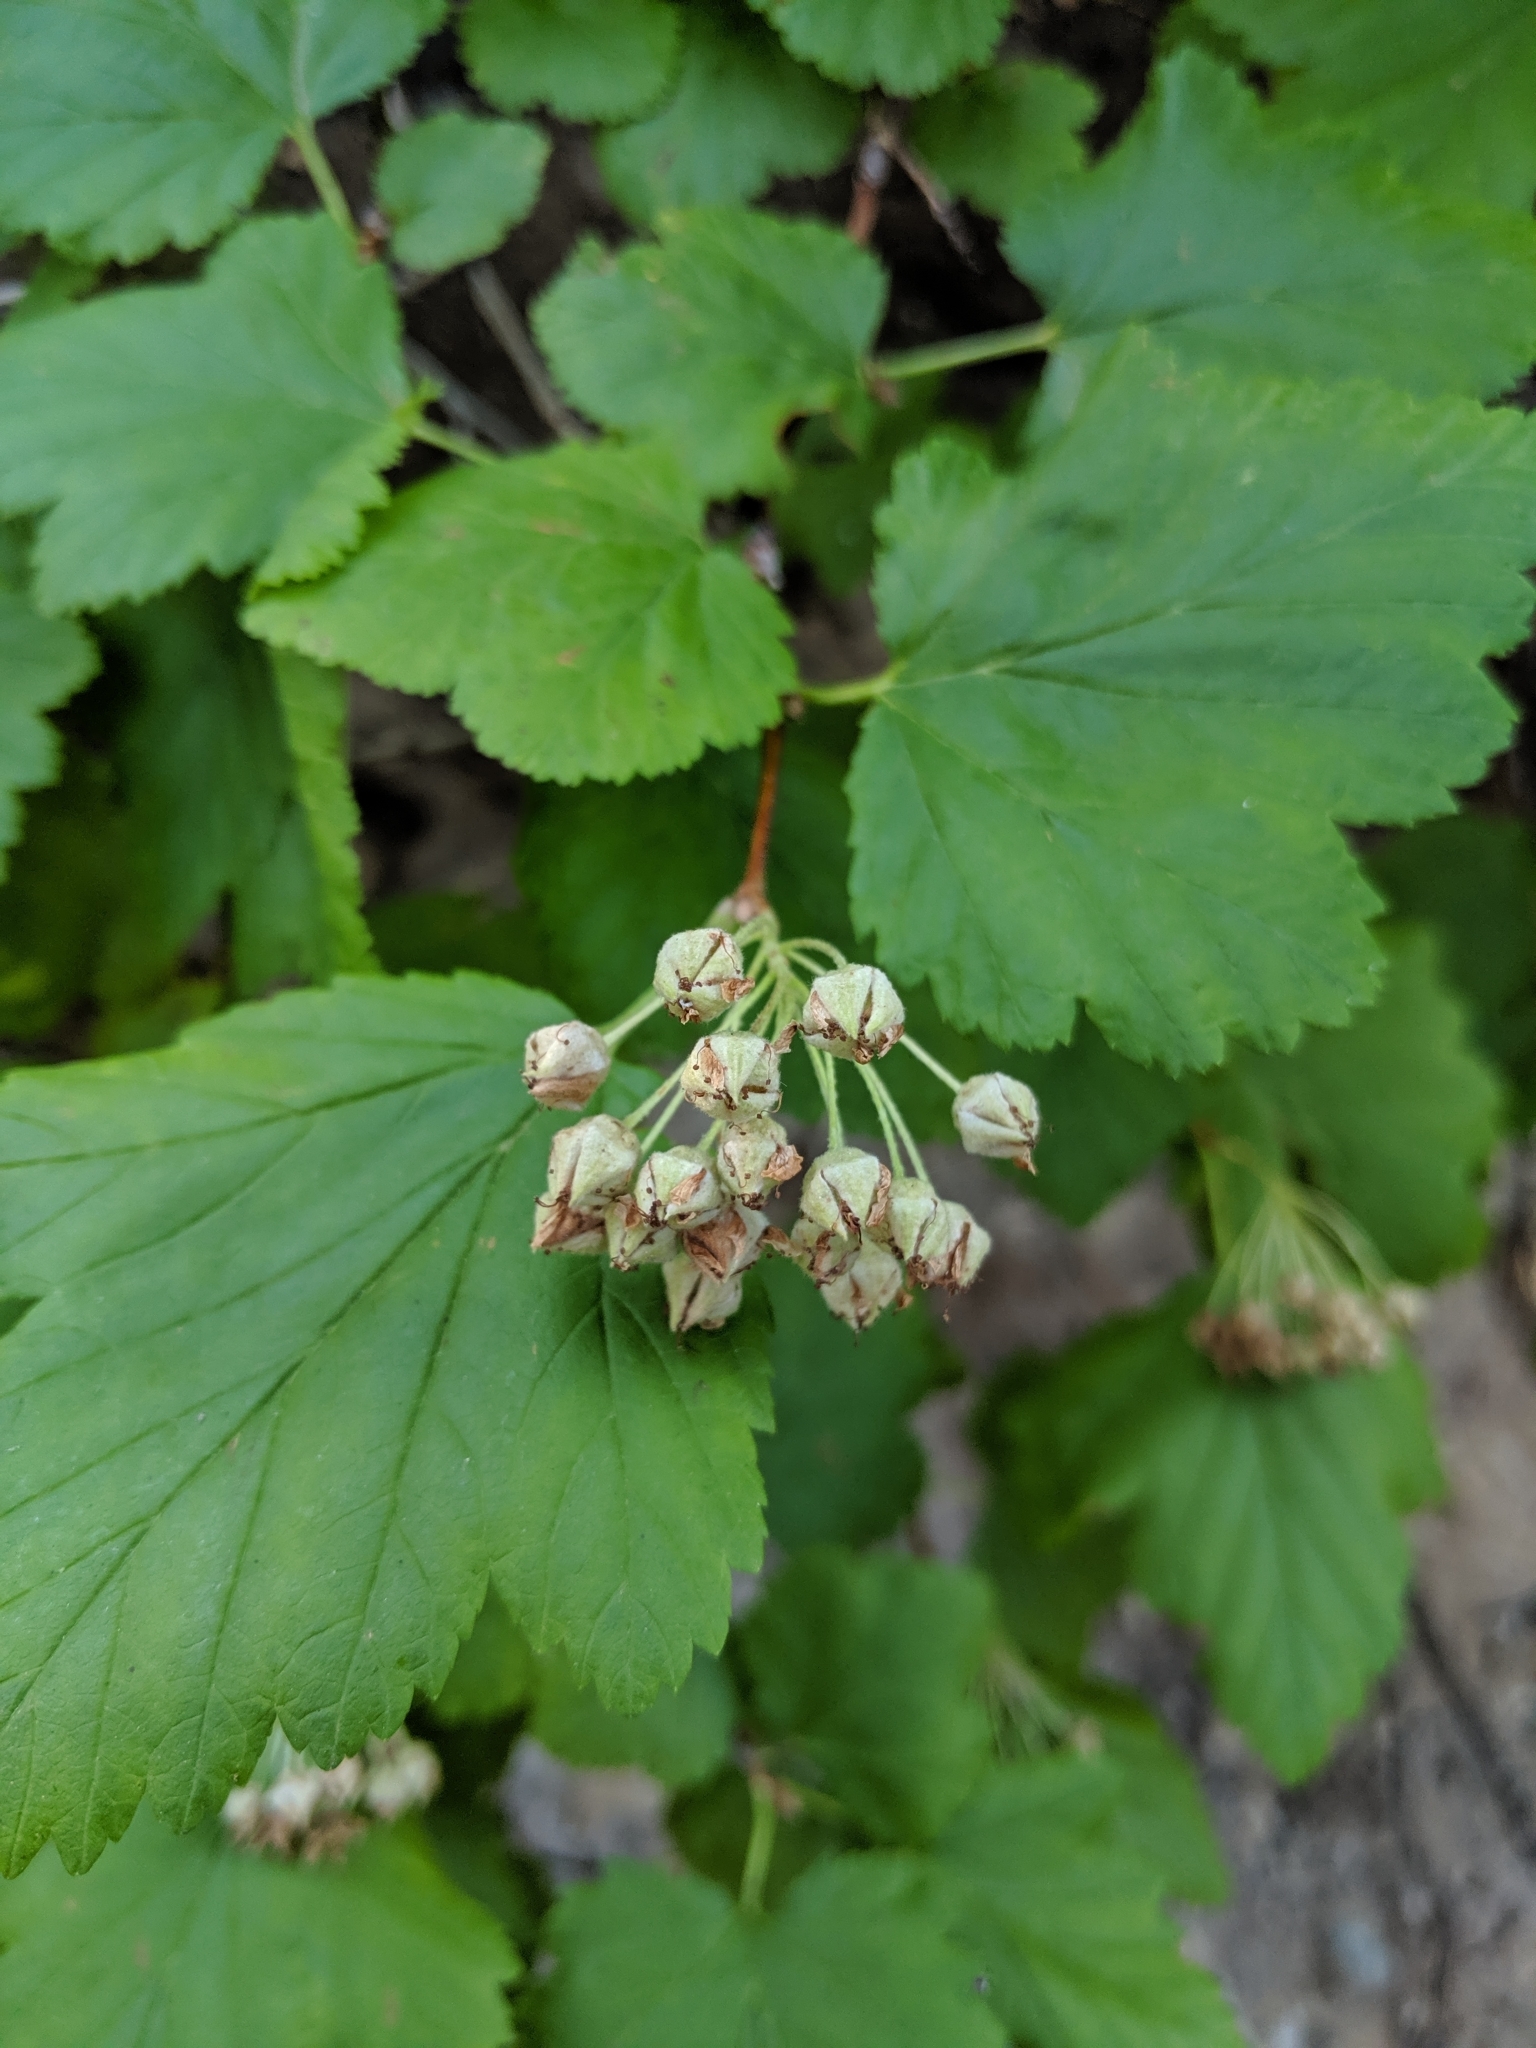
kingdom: Plantae
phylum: Tracheophyta
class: Magnoliopsida
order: Rosales
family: Rosaceae
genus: Physocarpus
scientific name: Physocarpus malvaceus
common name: Mallow ninebark
